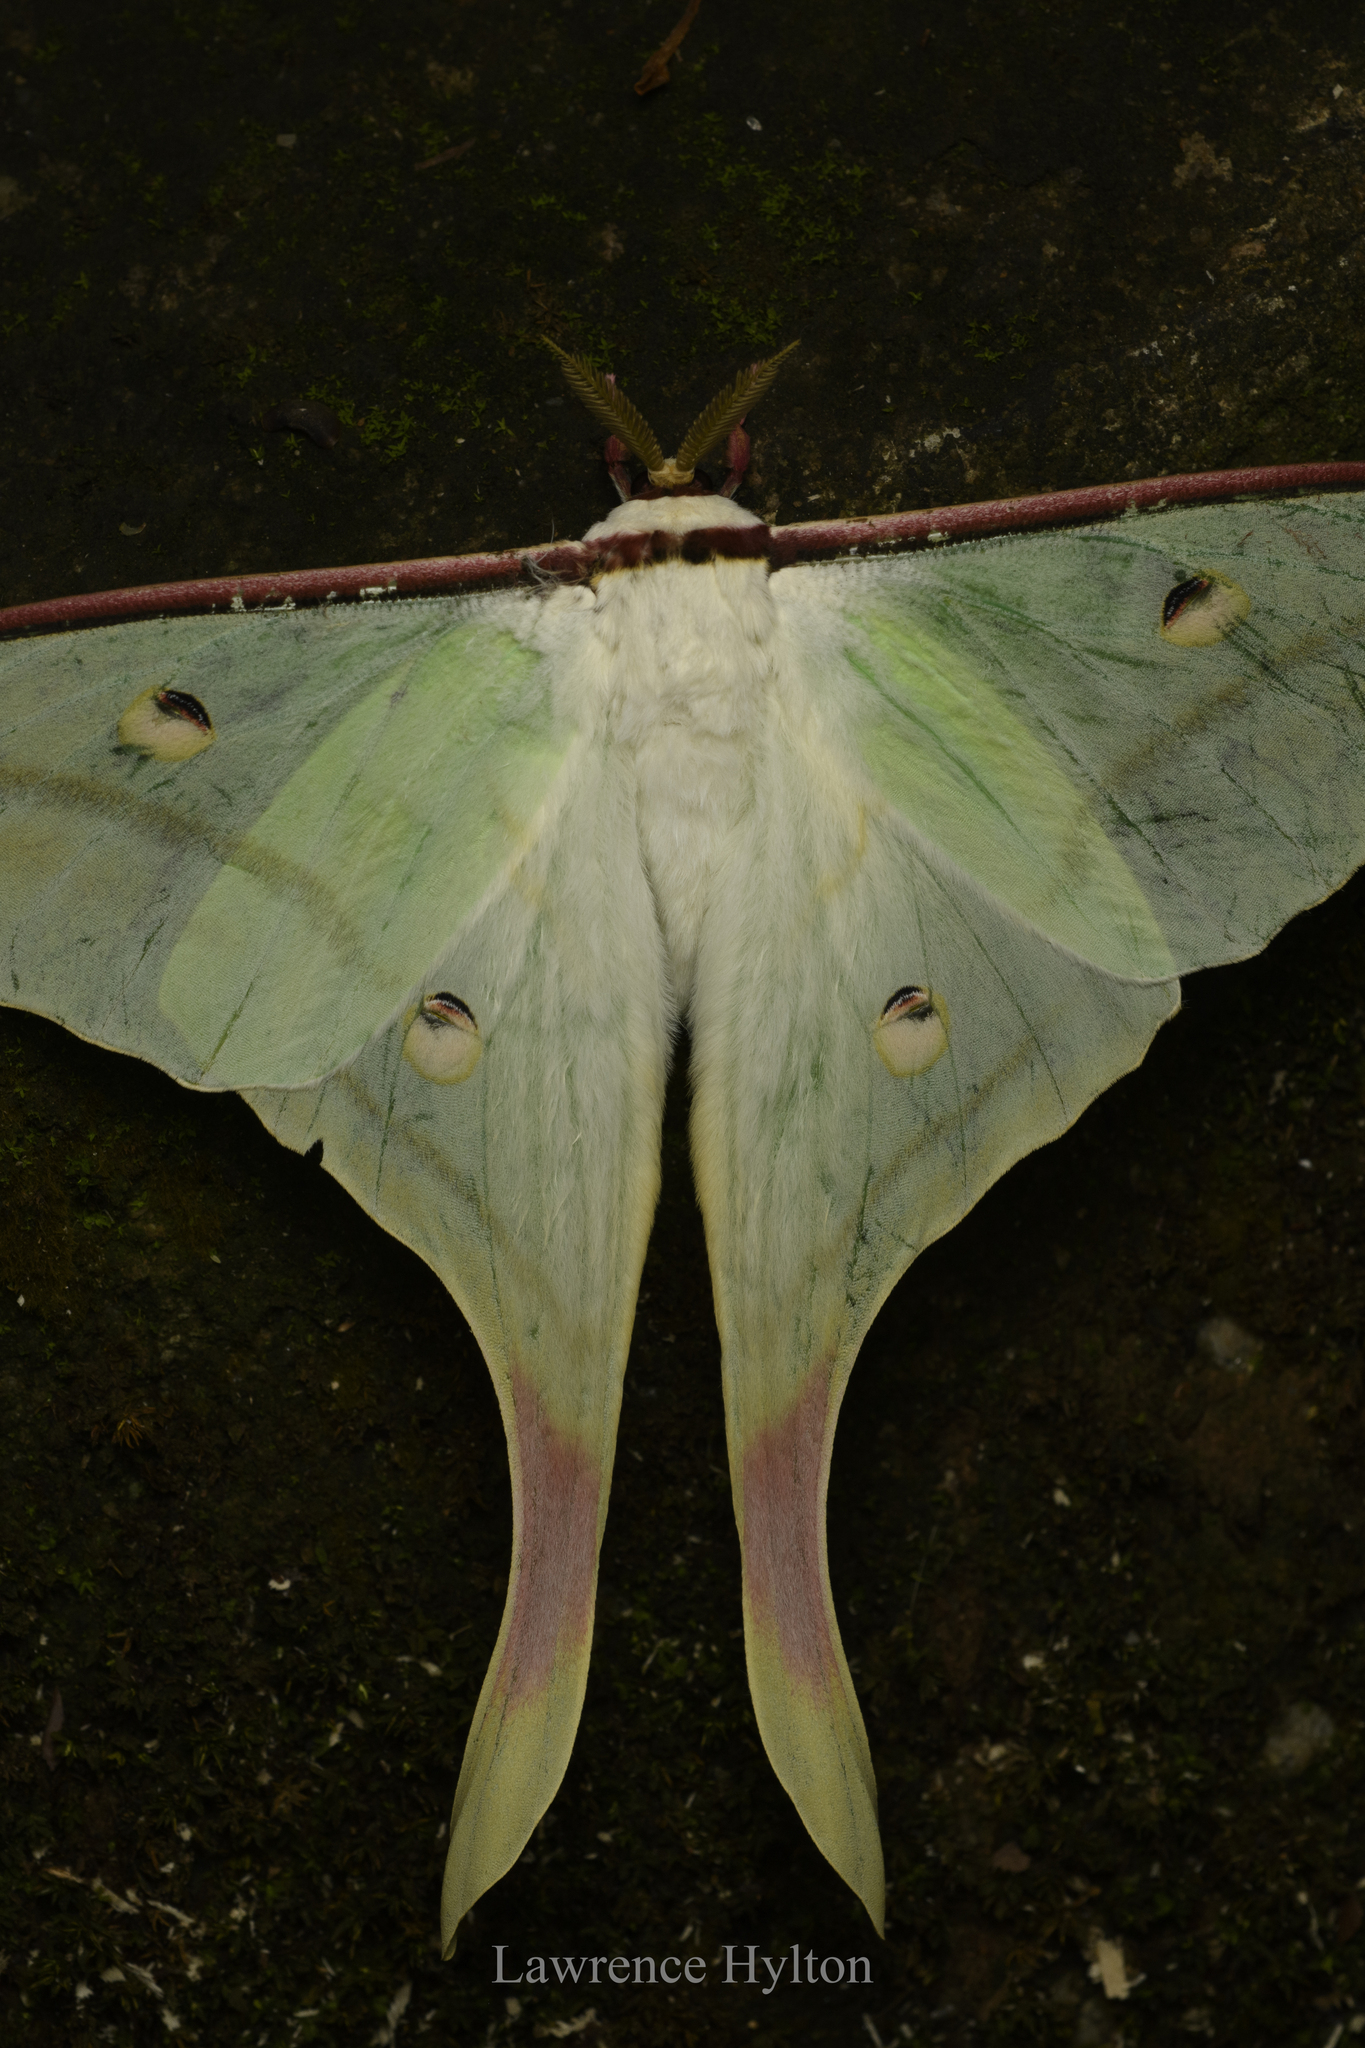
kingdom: Animalia
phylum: Arthropoda
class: Insecta
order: Lepidoptera
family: Saturniidae
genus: Actias
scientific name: Actias ningpoana
